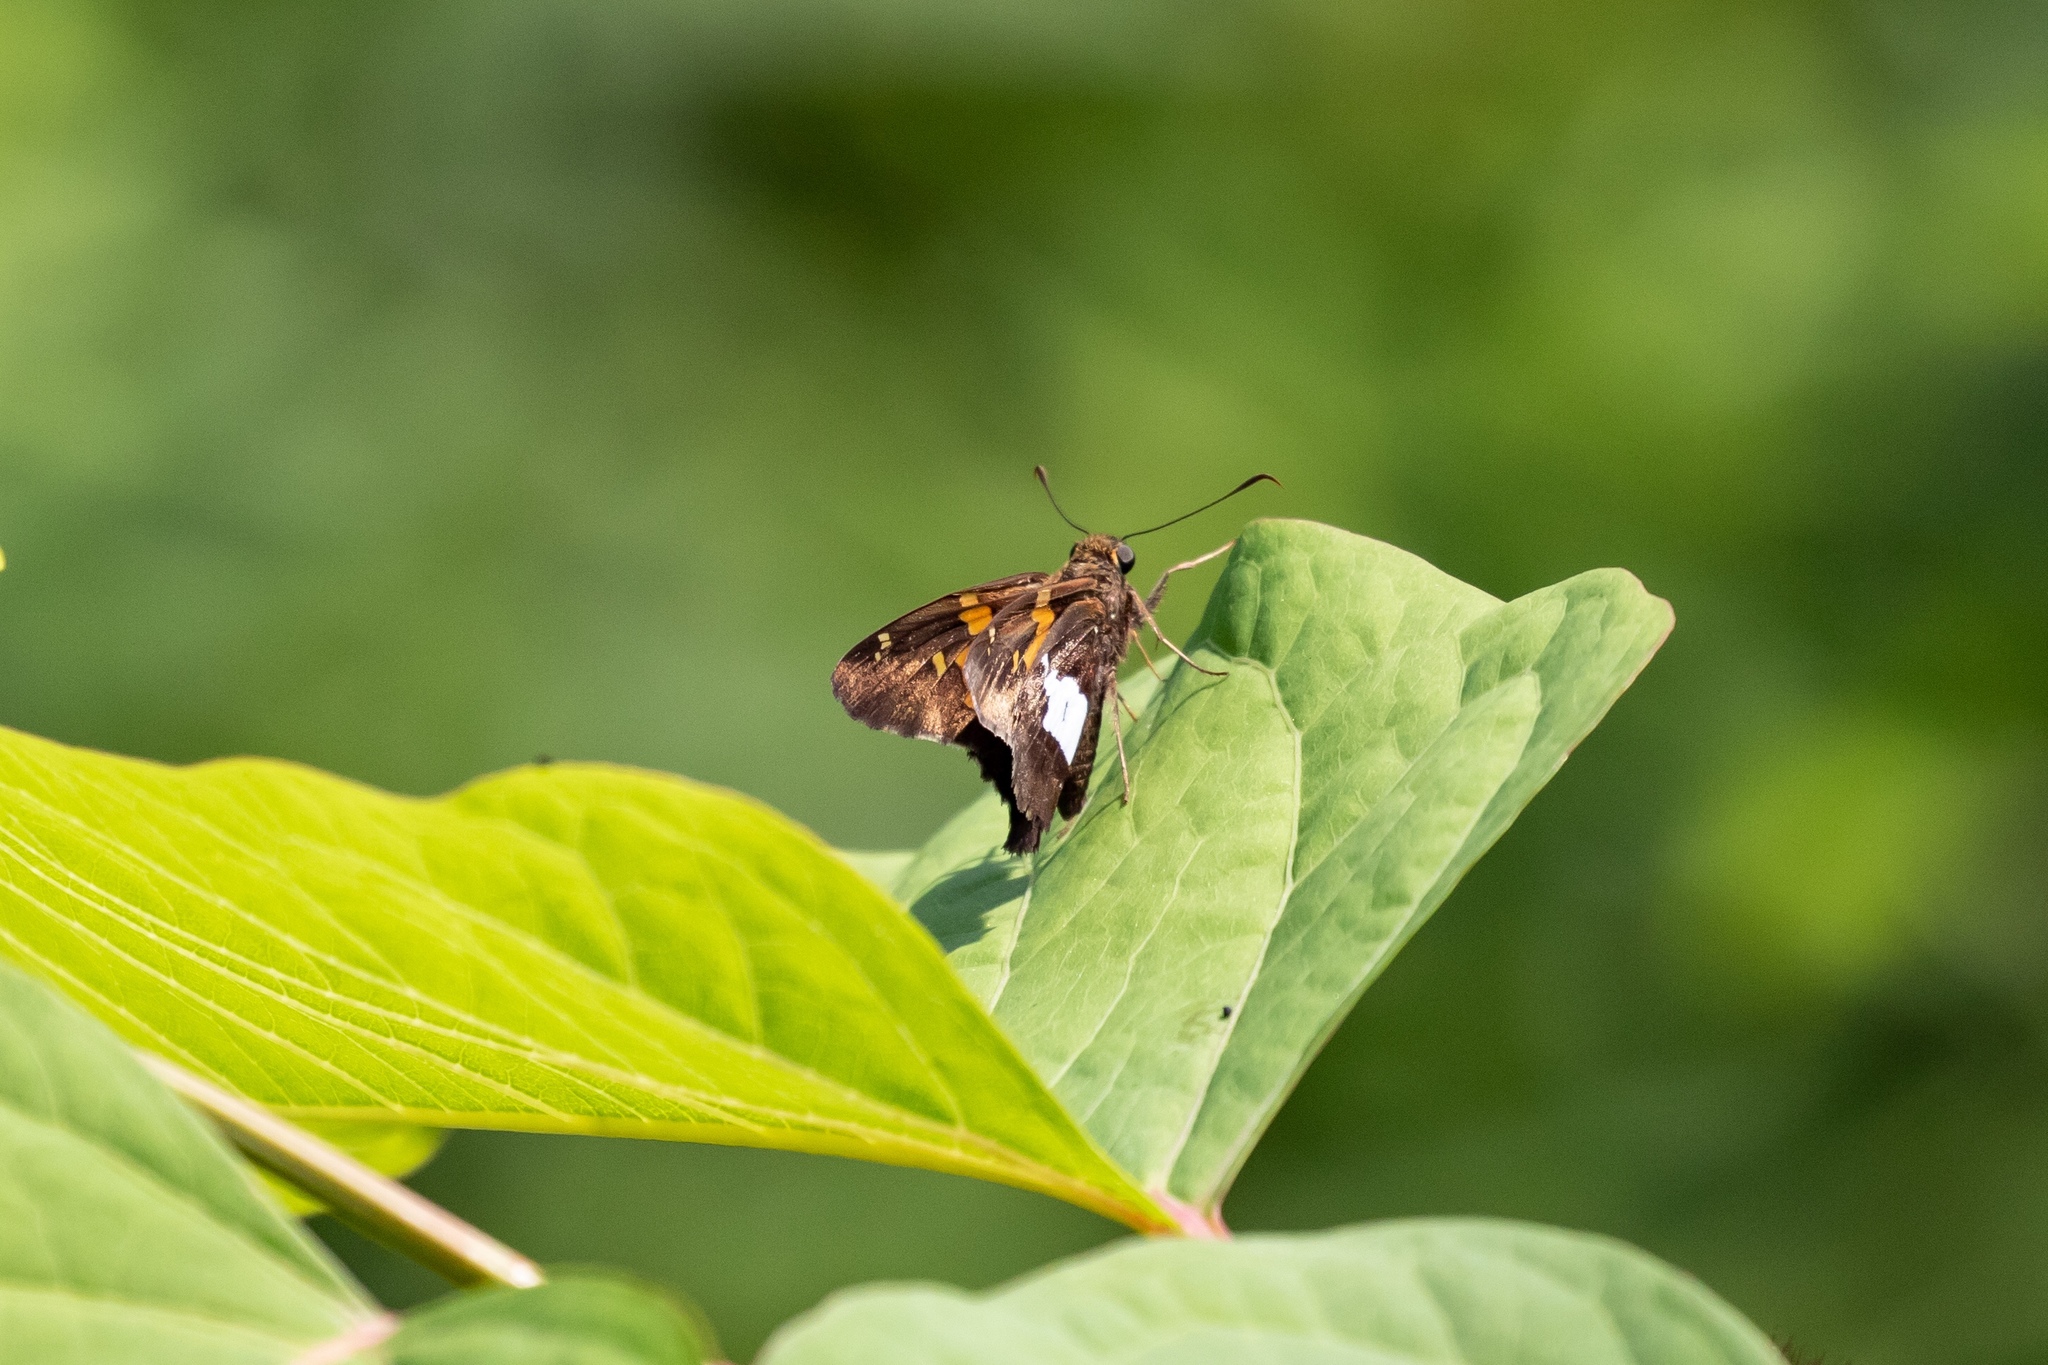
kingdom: Animalia
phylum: Arthropoda
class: Insecta
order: Lepidoptera
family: Hesperiidae
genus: Epargyreus
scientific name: Epargyreus clarus
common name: Silver-spotted skipper
